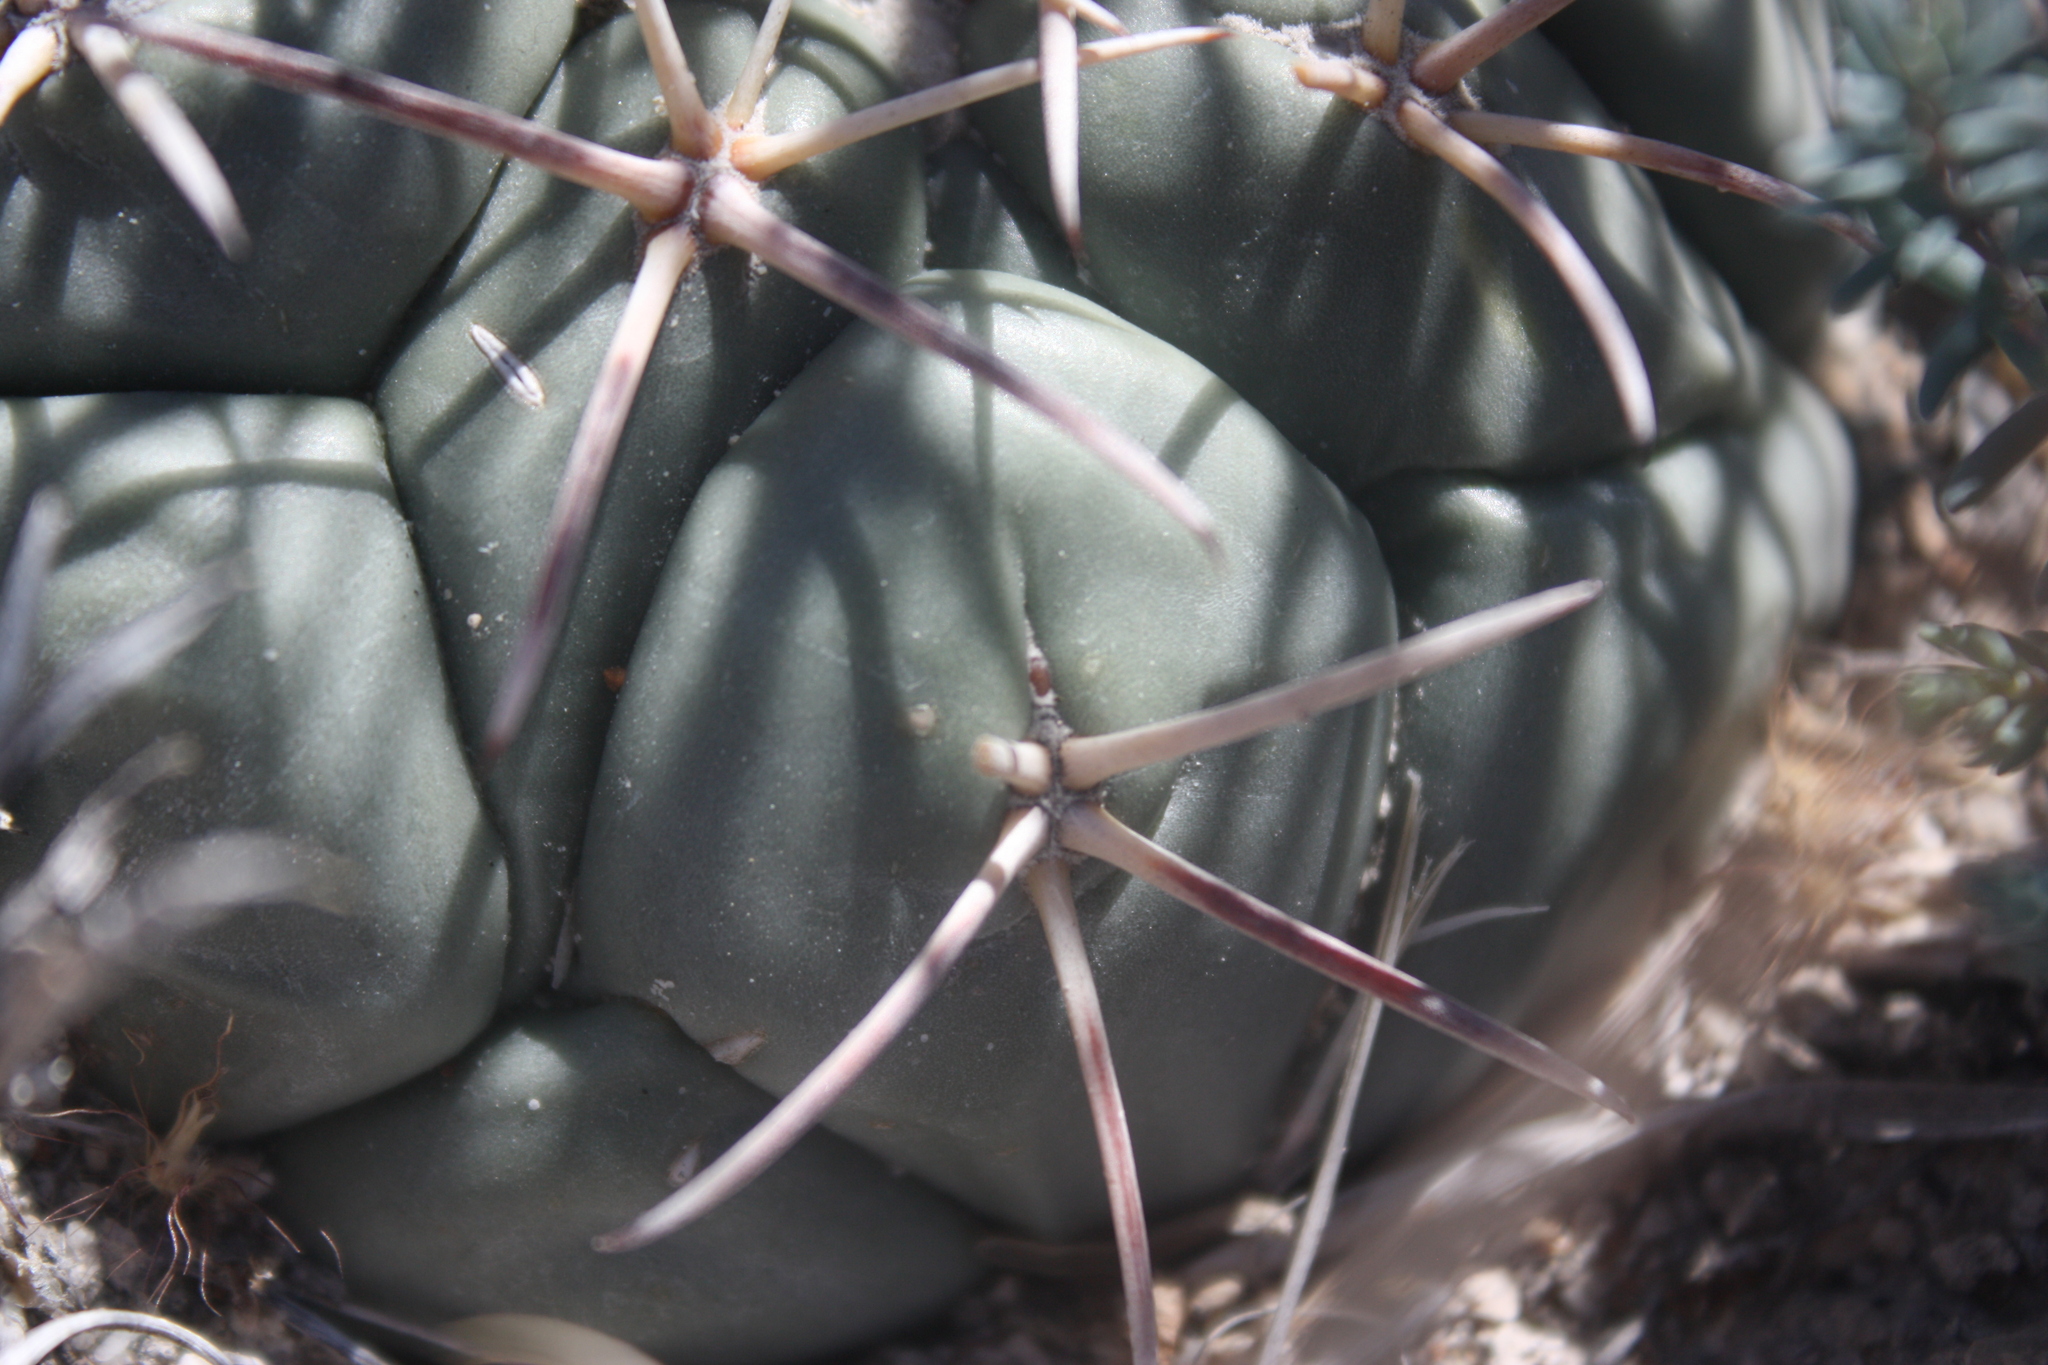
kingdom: Plantae
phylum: Tracheophyta
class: Magnoliopsida
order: Caryophyllales
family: Cactaceae
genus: Coryphantha
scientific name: Coryphantha poselgeriana
